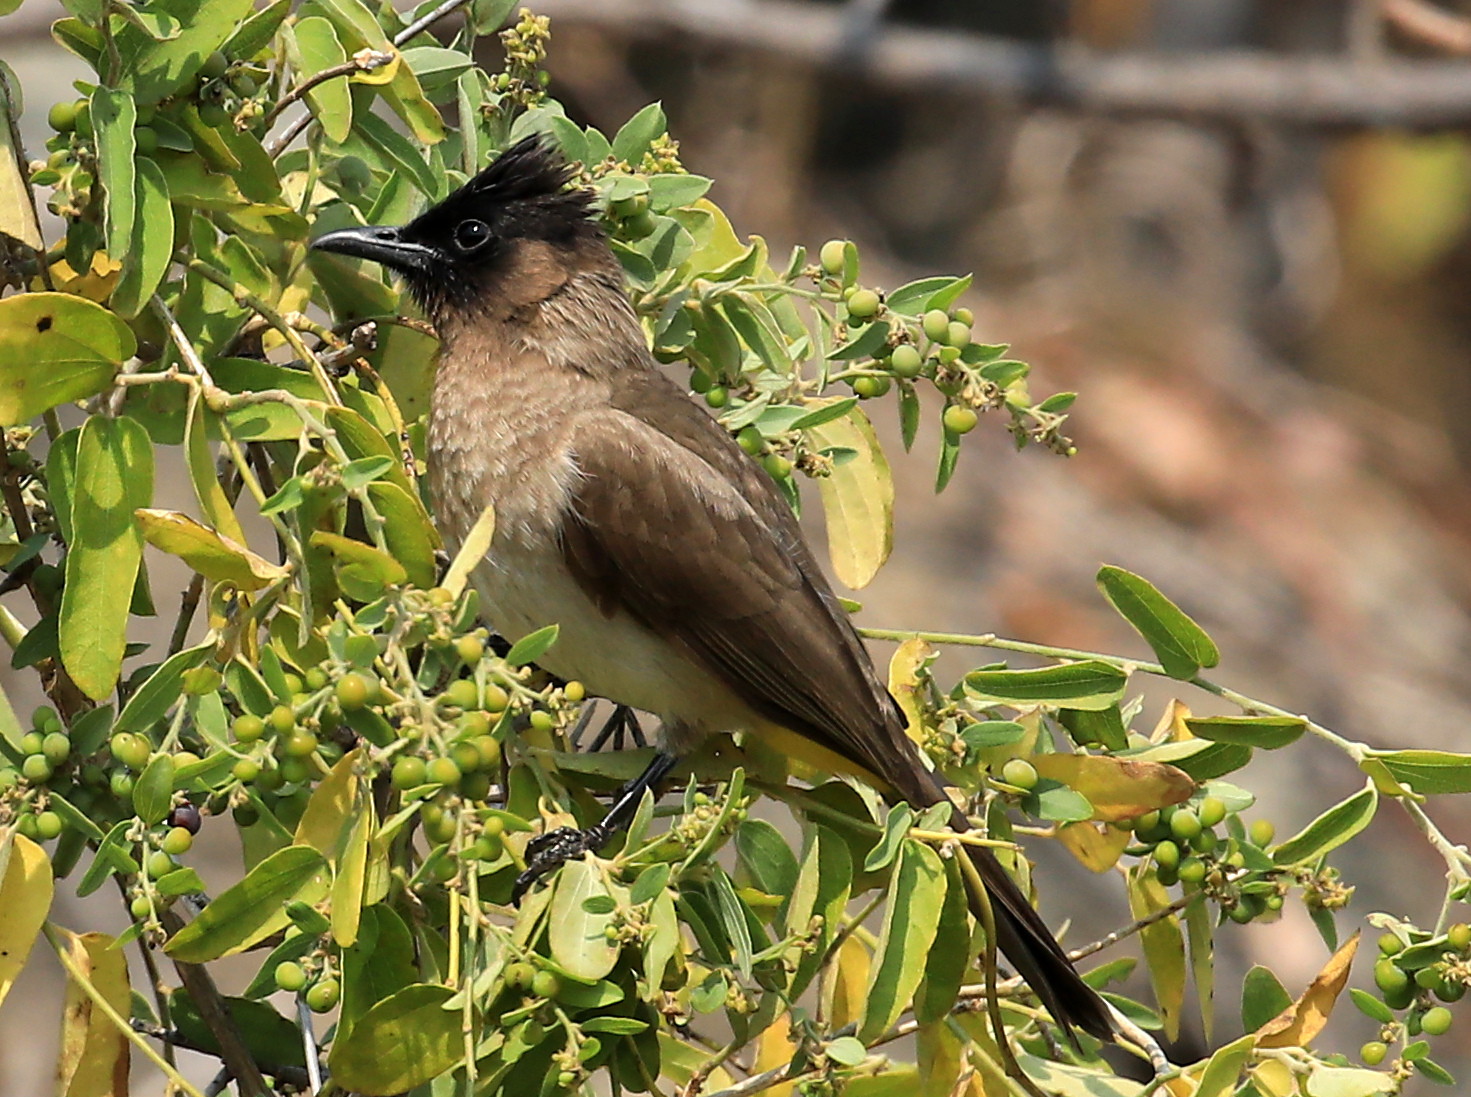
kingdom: Animalia
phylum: Chordata
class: Aves
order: Passeriformes
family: Pycnonotidae
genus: Pycnonotus
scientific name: Pycnonotus barbatus
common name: Common bulbul
